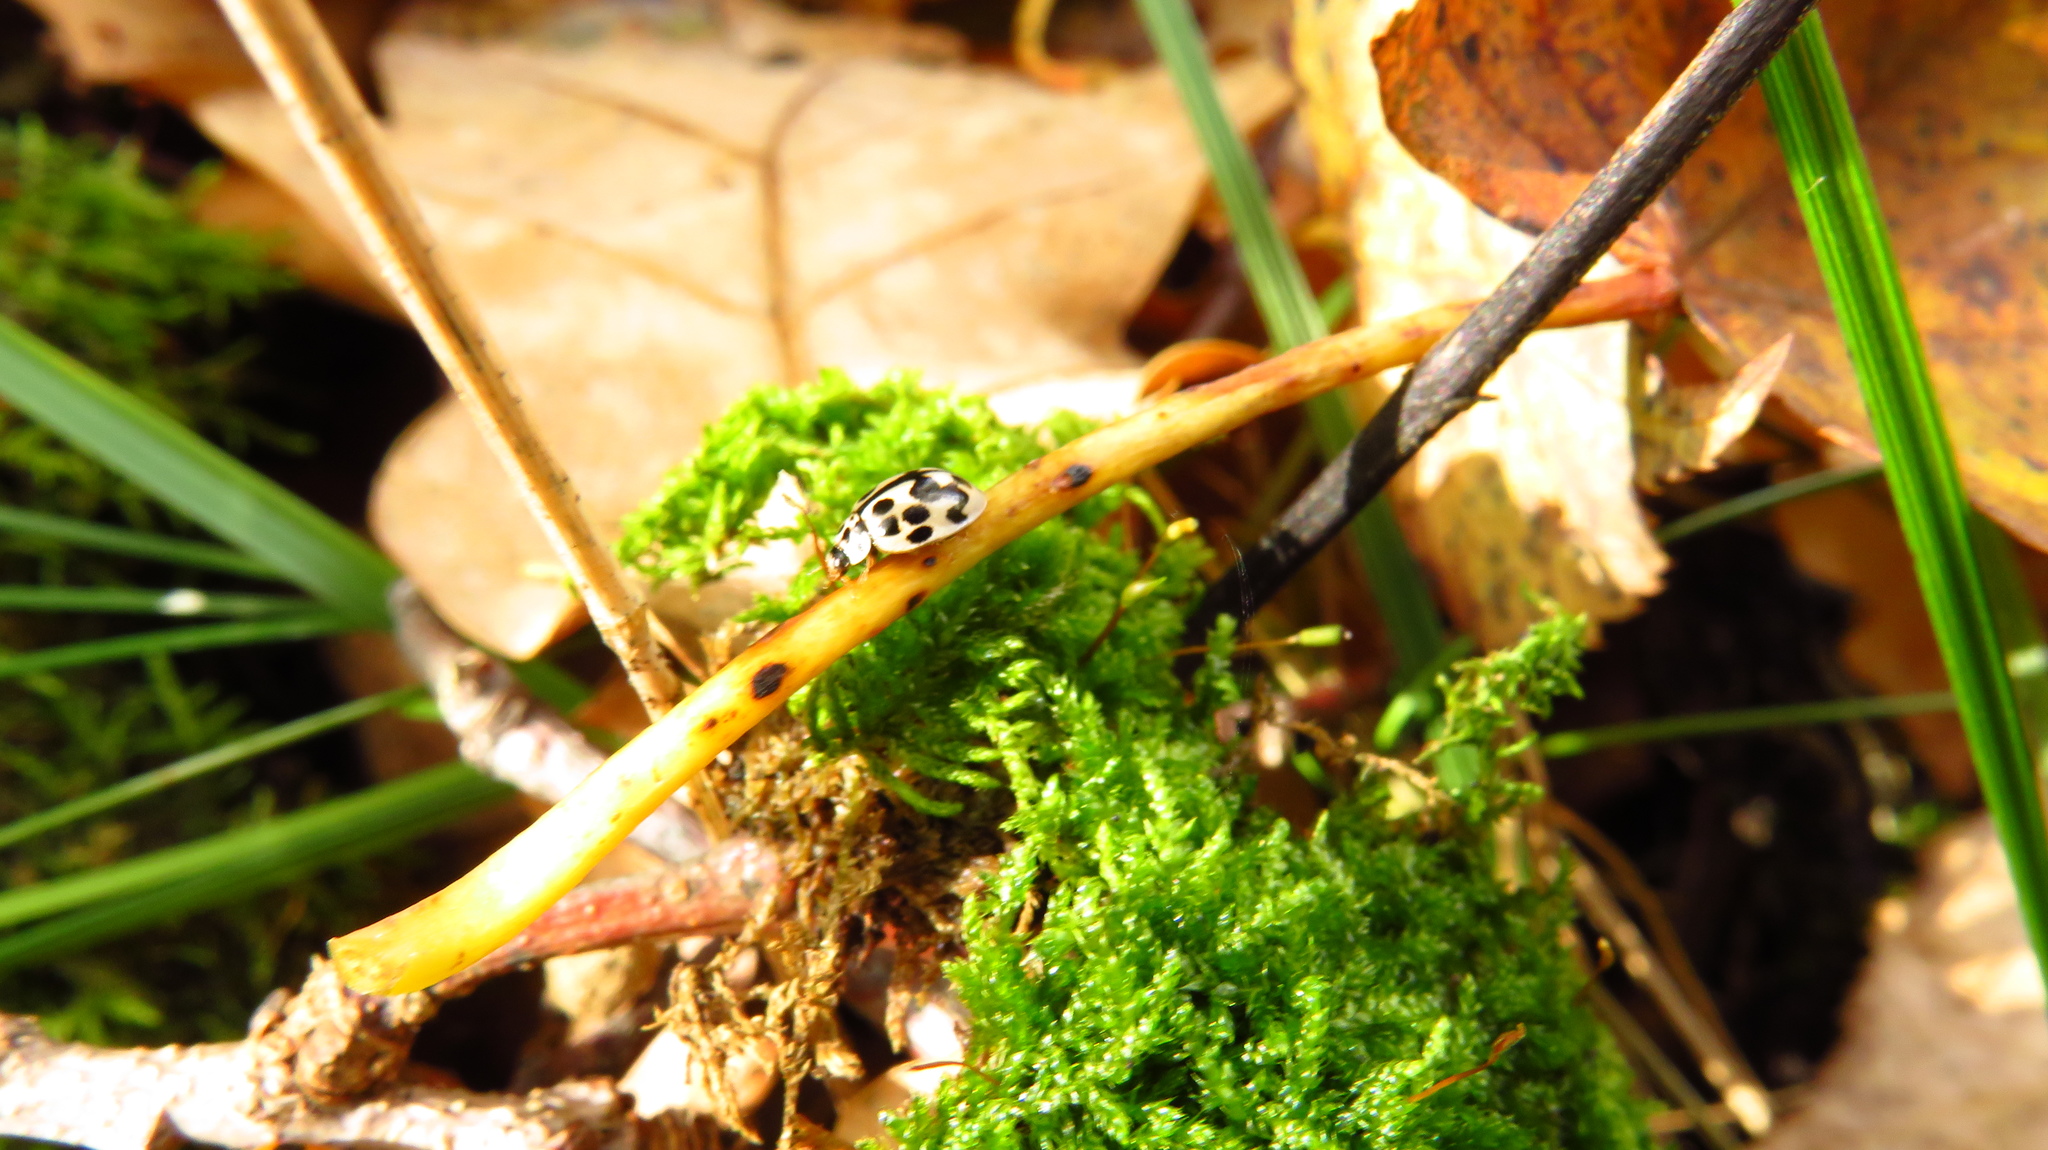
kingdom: Animalia
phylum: Arthropoda
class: Insecta
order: Coleoptera
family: Coccinellidae
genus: Oenopia
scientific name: Oenopia conglobata
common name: Ladybird beetle
